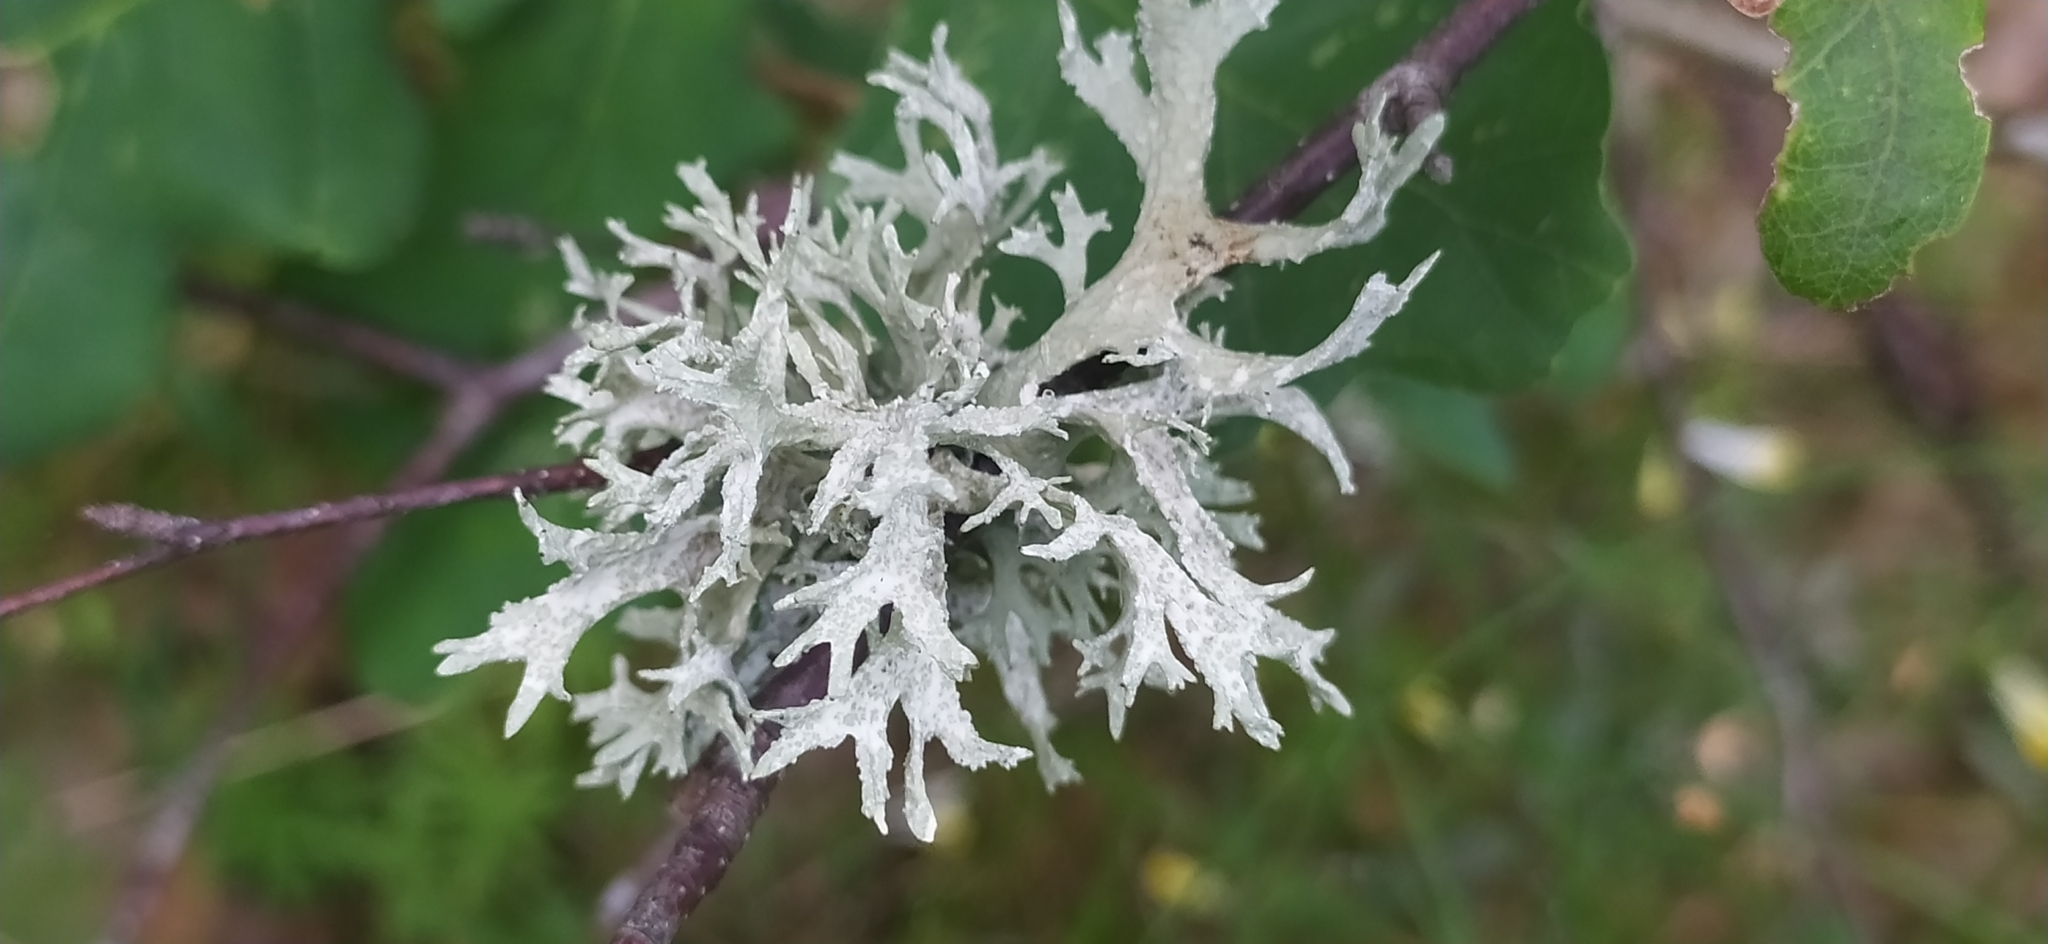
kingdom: Fungi
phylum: Ascomycota
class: Lecanoromycetes
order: Lecanorales
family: Parmeliaceae
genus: Evernia
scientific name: Evernia prunastri
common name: Oak moss
